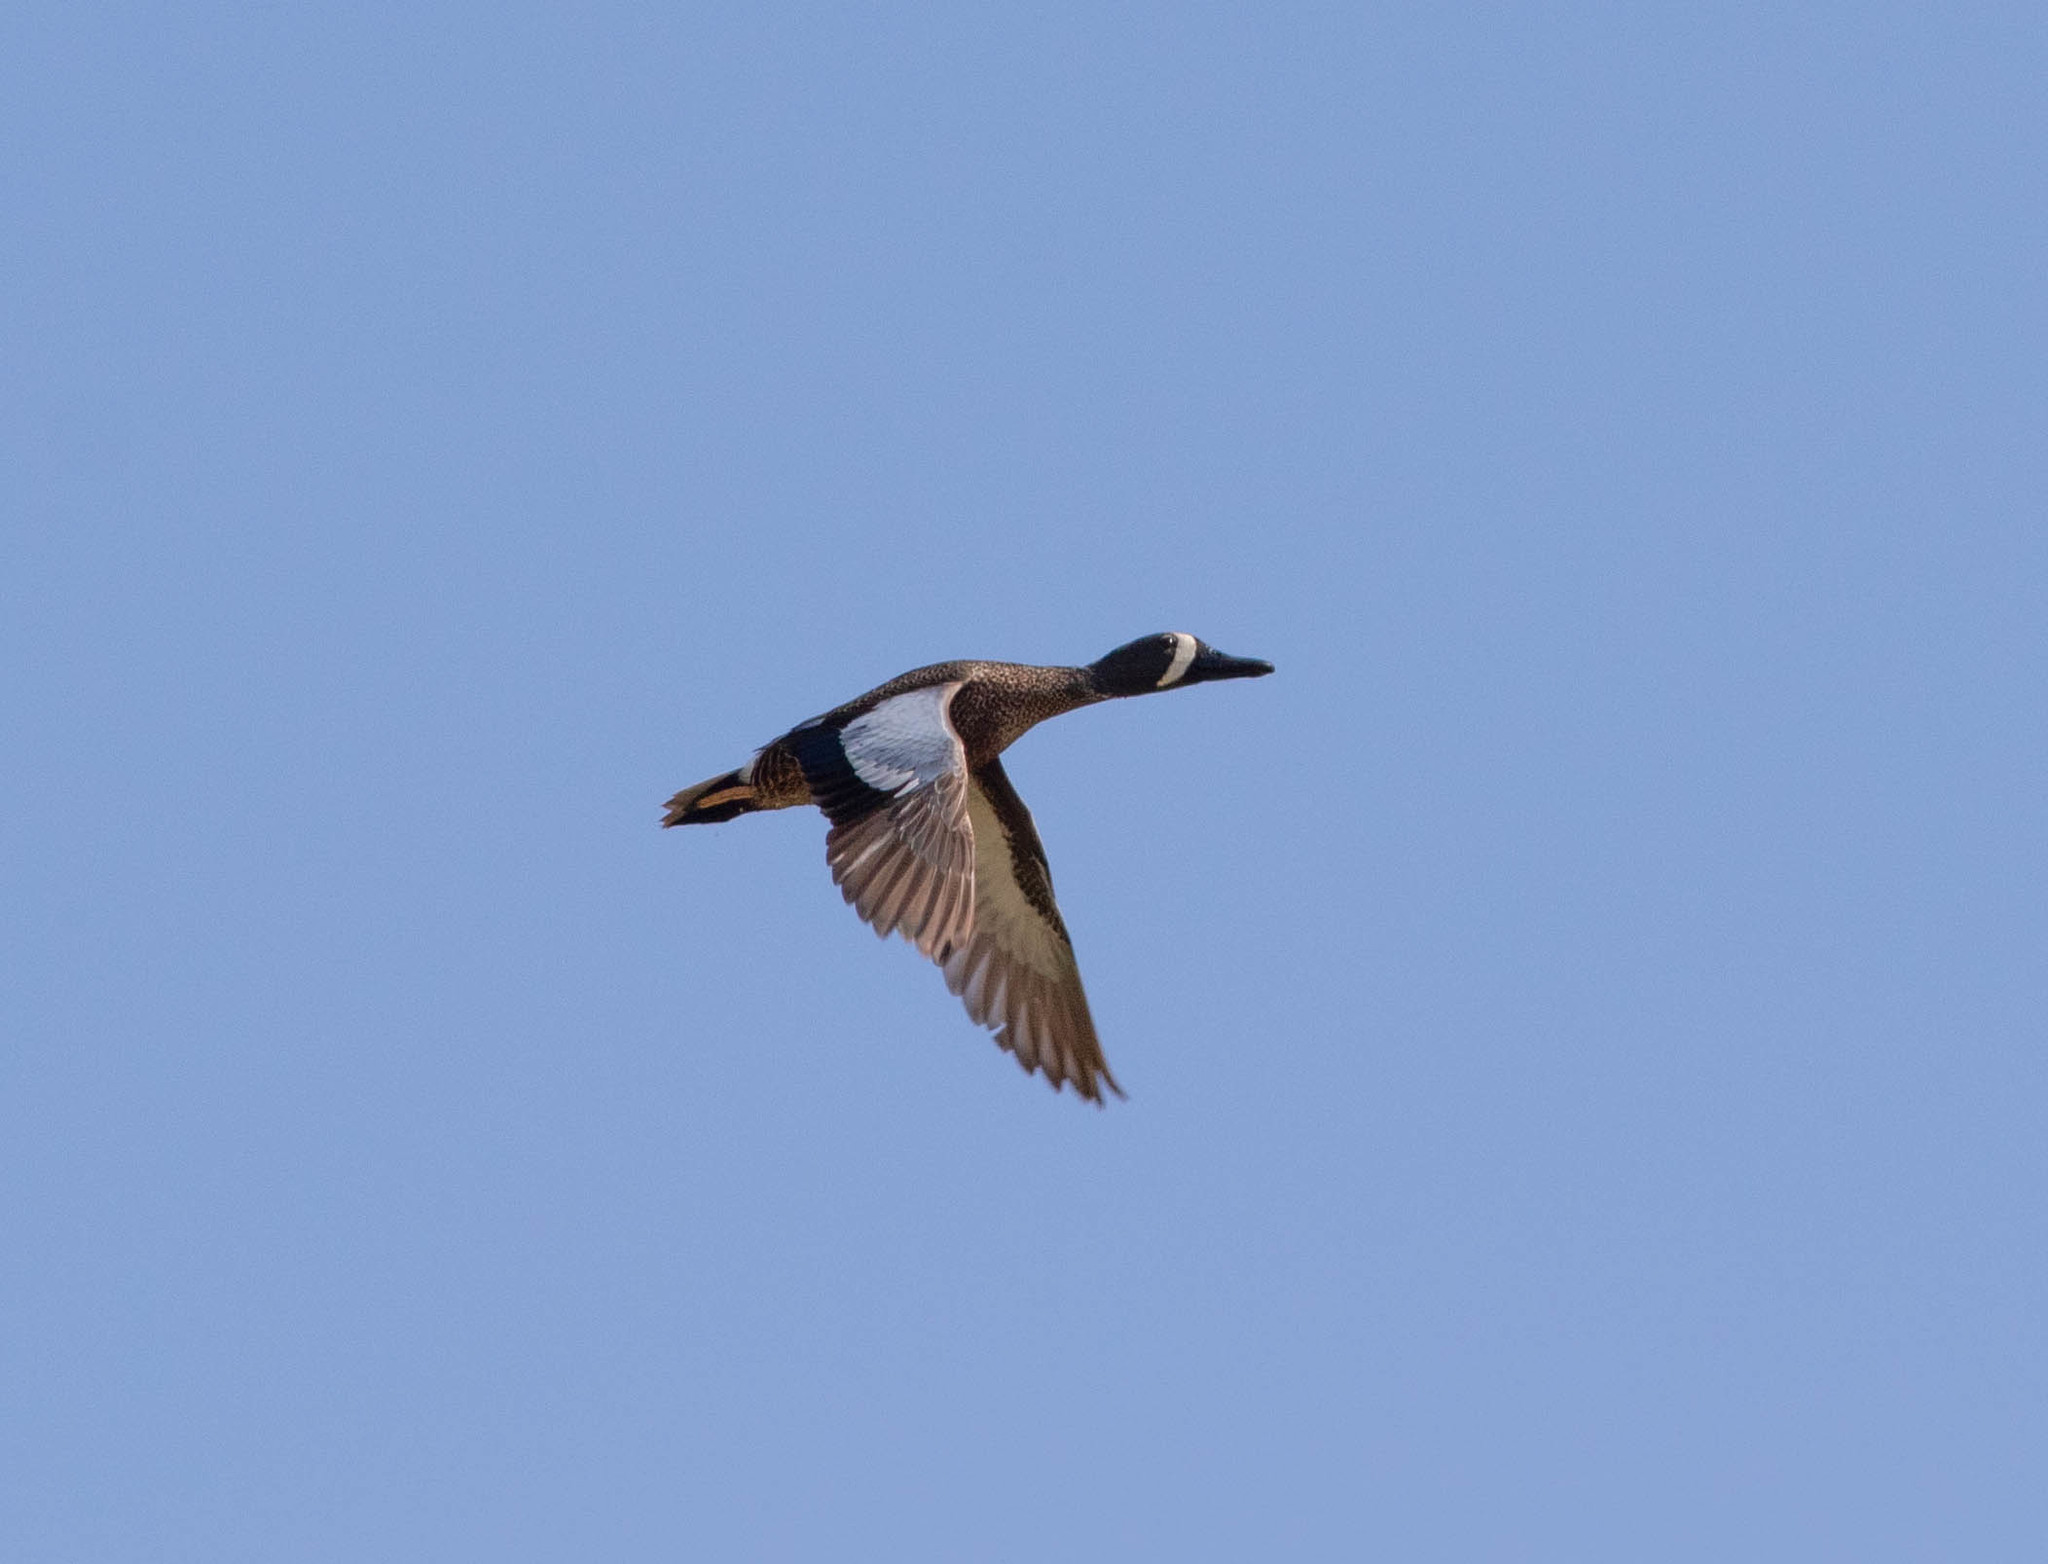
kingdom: Animalia
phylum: Chordata
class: Aves
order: Anseriformes
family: Anatidae
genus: Spatula
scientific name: Spatula discors
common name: Blue-winged teal
